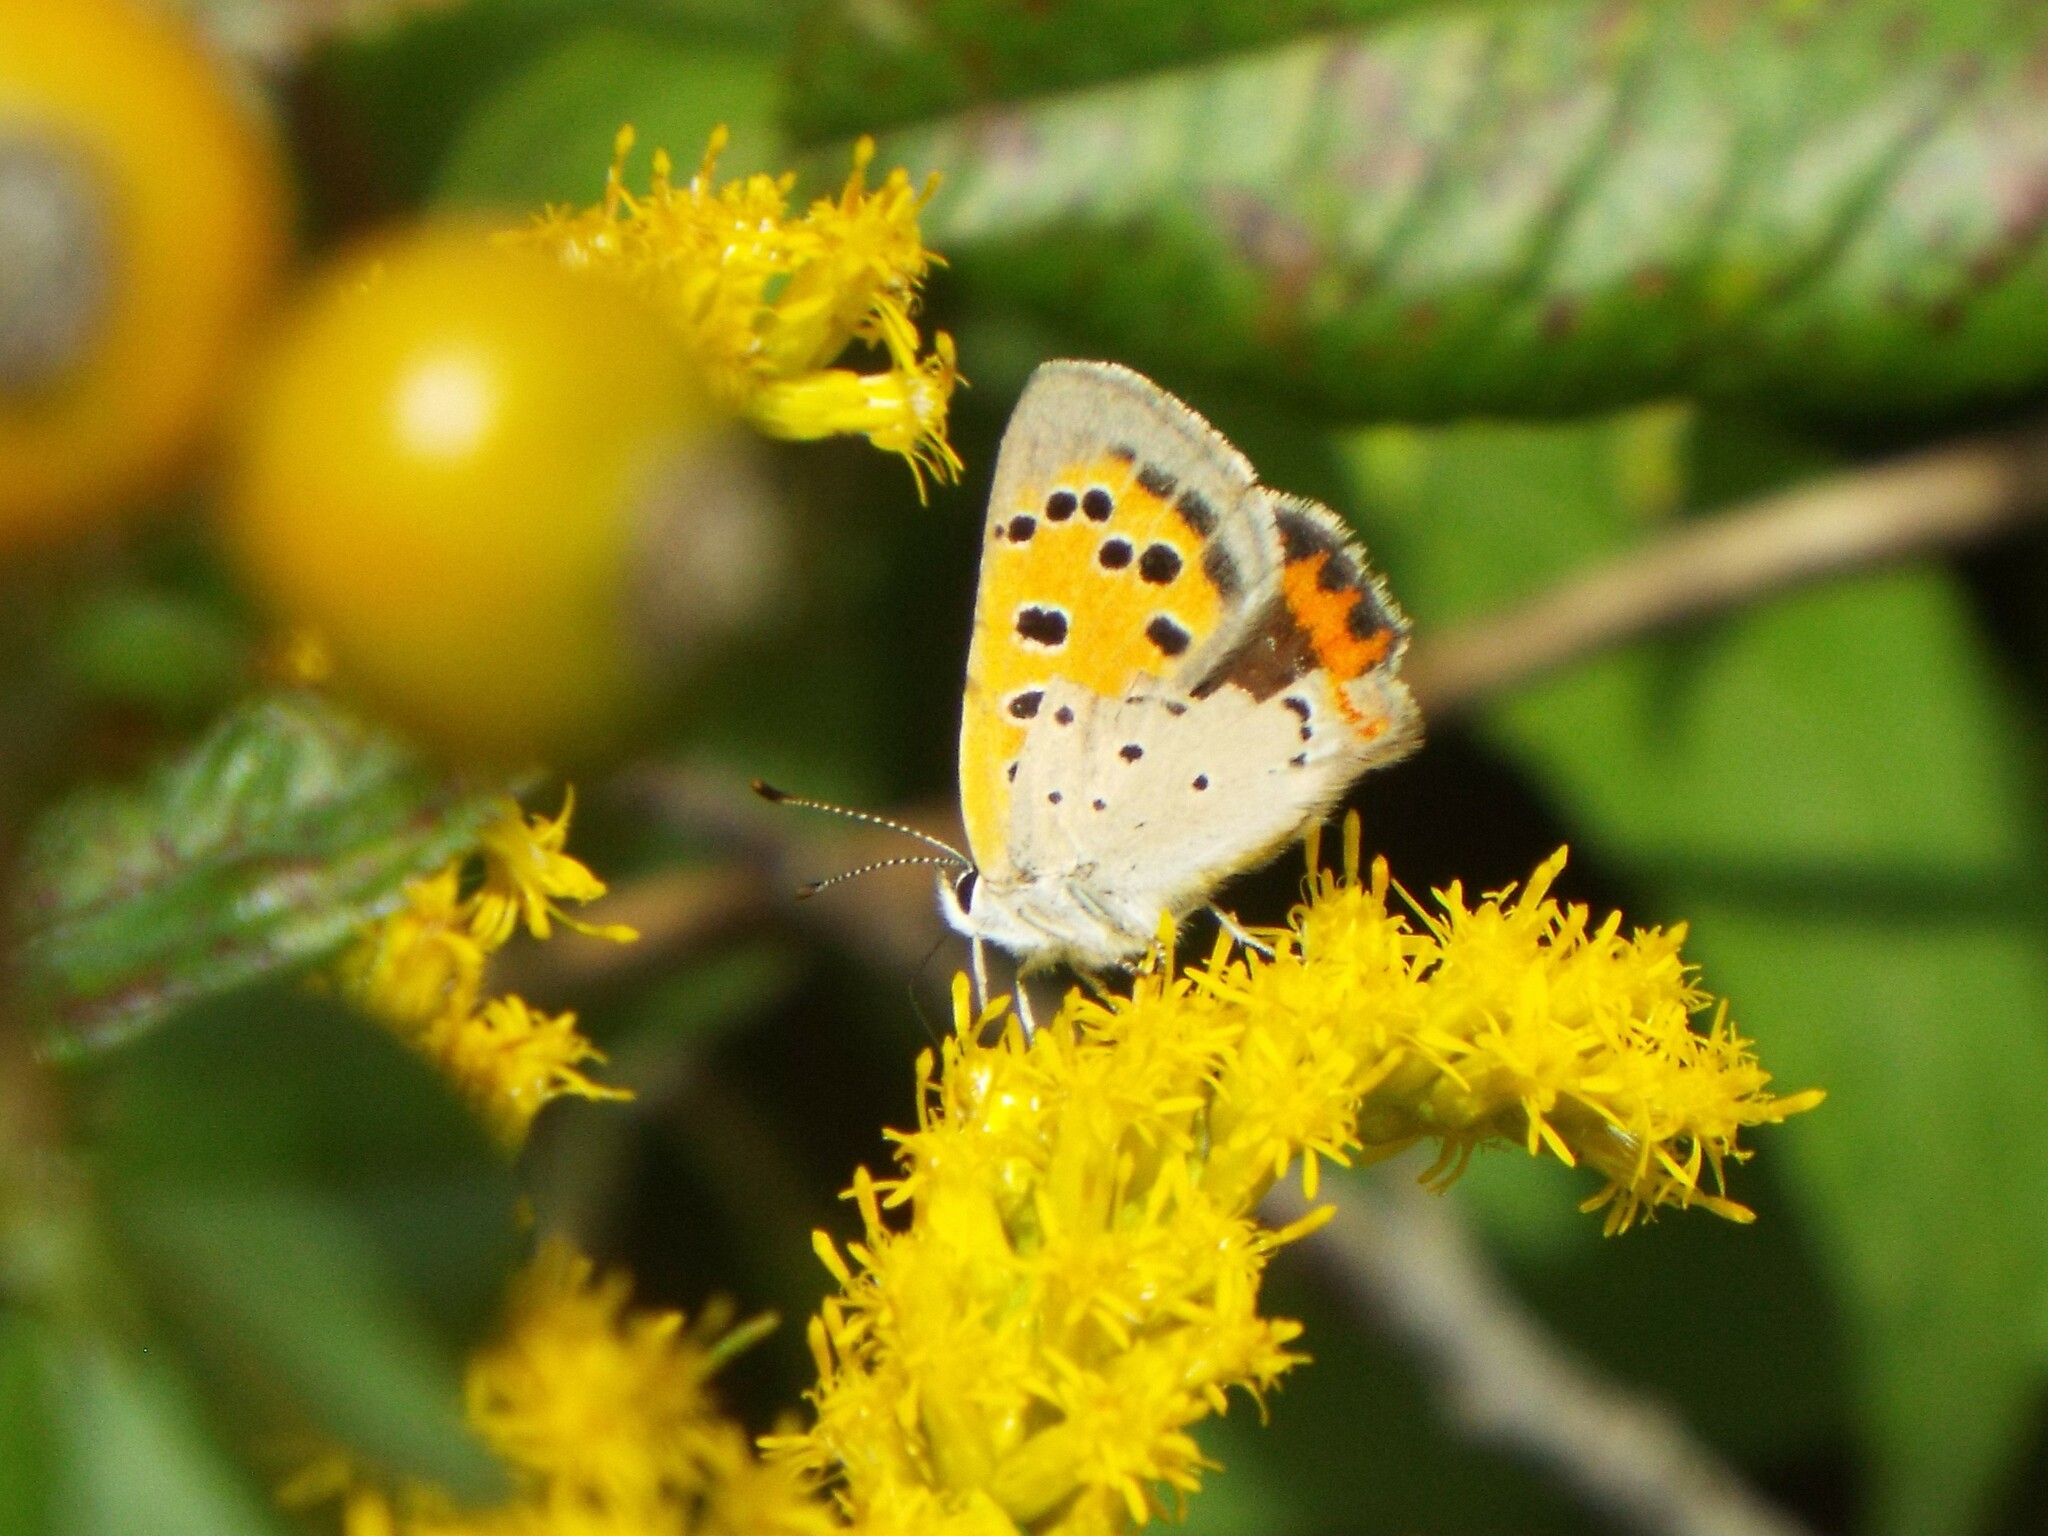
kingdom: Animalia
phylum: Arthropoda
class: Insecta
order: Lepidoptera
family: Lycaenidae
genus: Lycaena
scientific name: Lycaena hypophlaeas
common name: American copper
